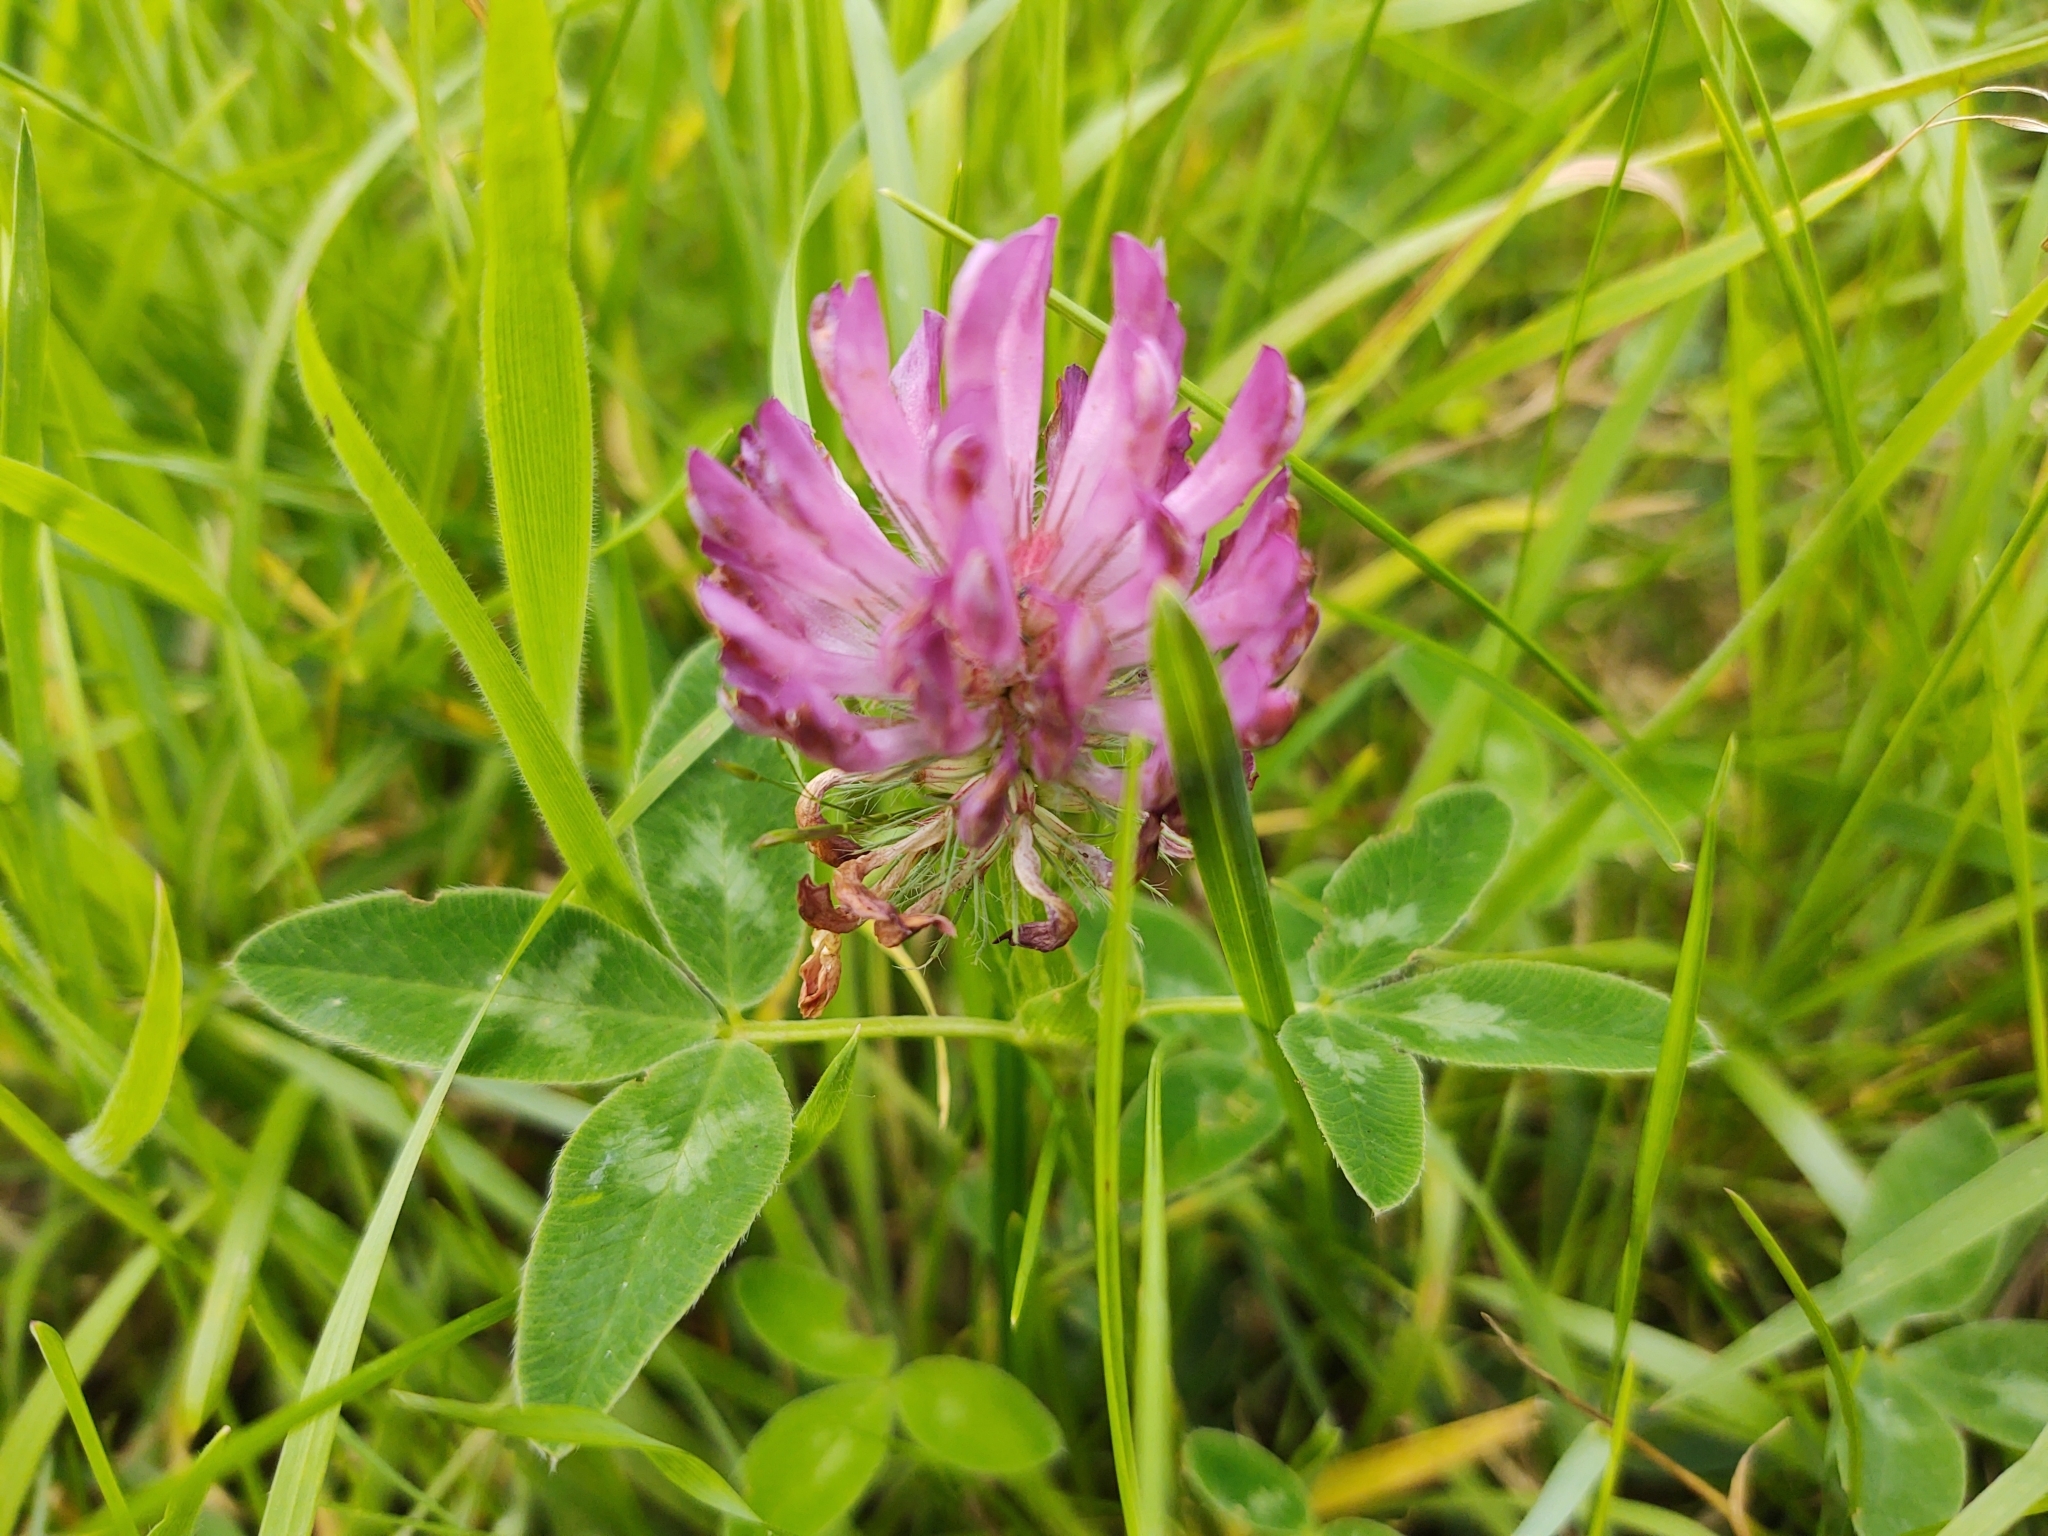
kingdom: Plantae
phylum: Tracheophyta
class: Magnoliopsida
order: Fabales
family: Fabaceae
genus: Trifolium
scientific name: Trifolium medium
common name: Zigzag clover
